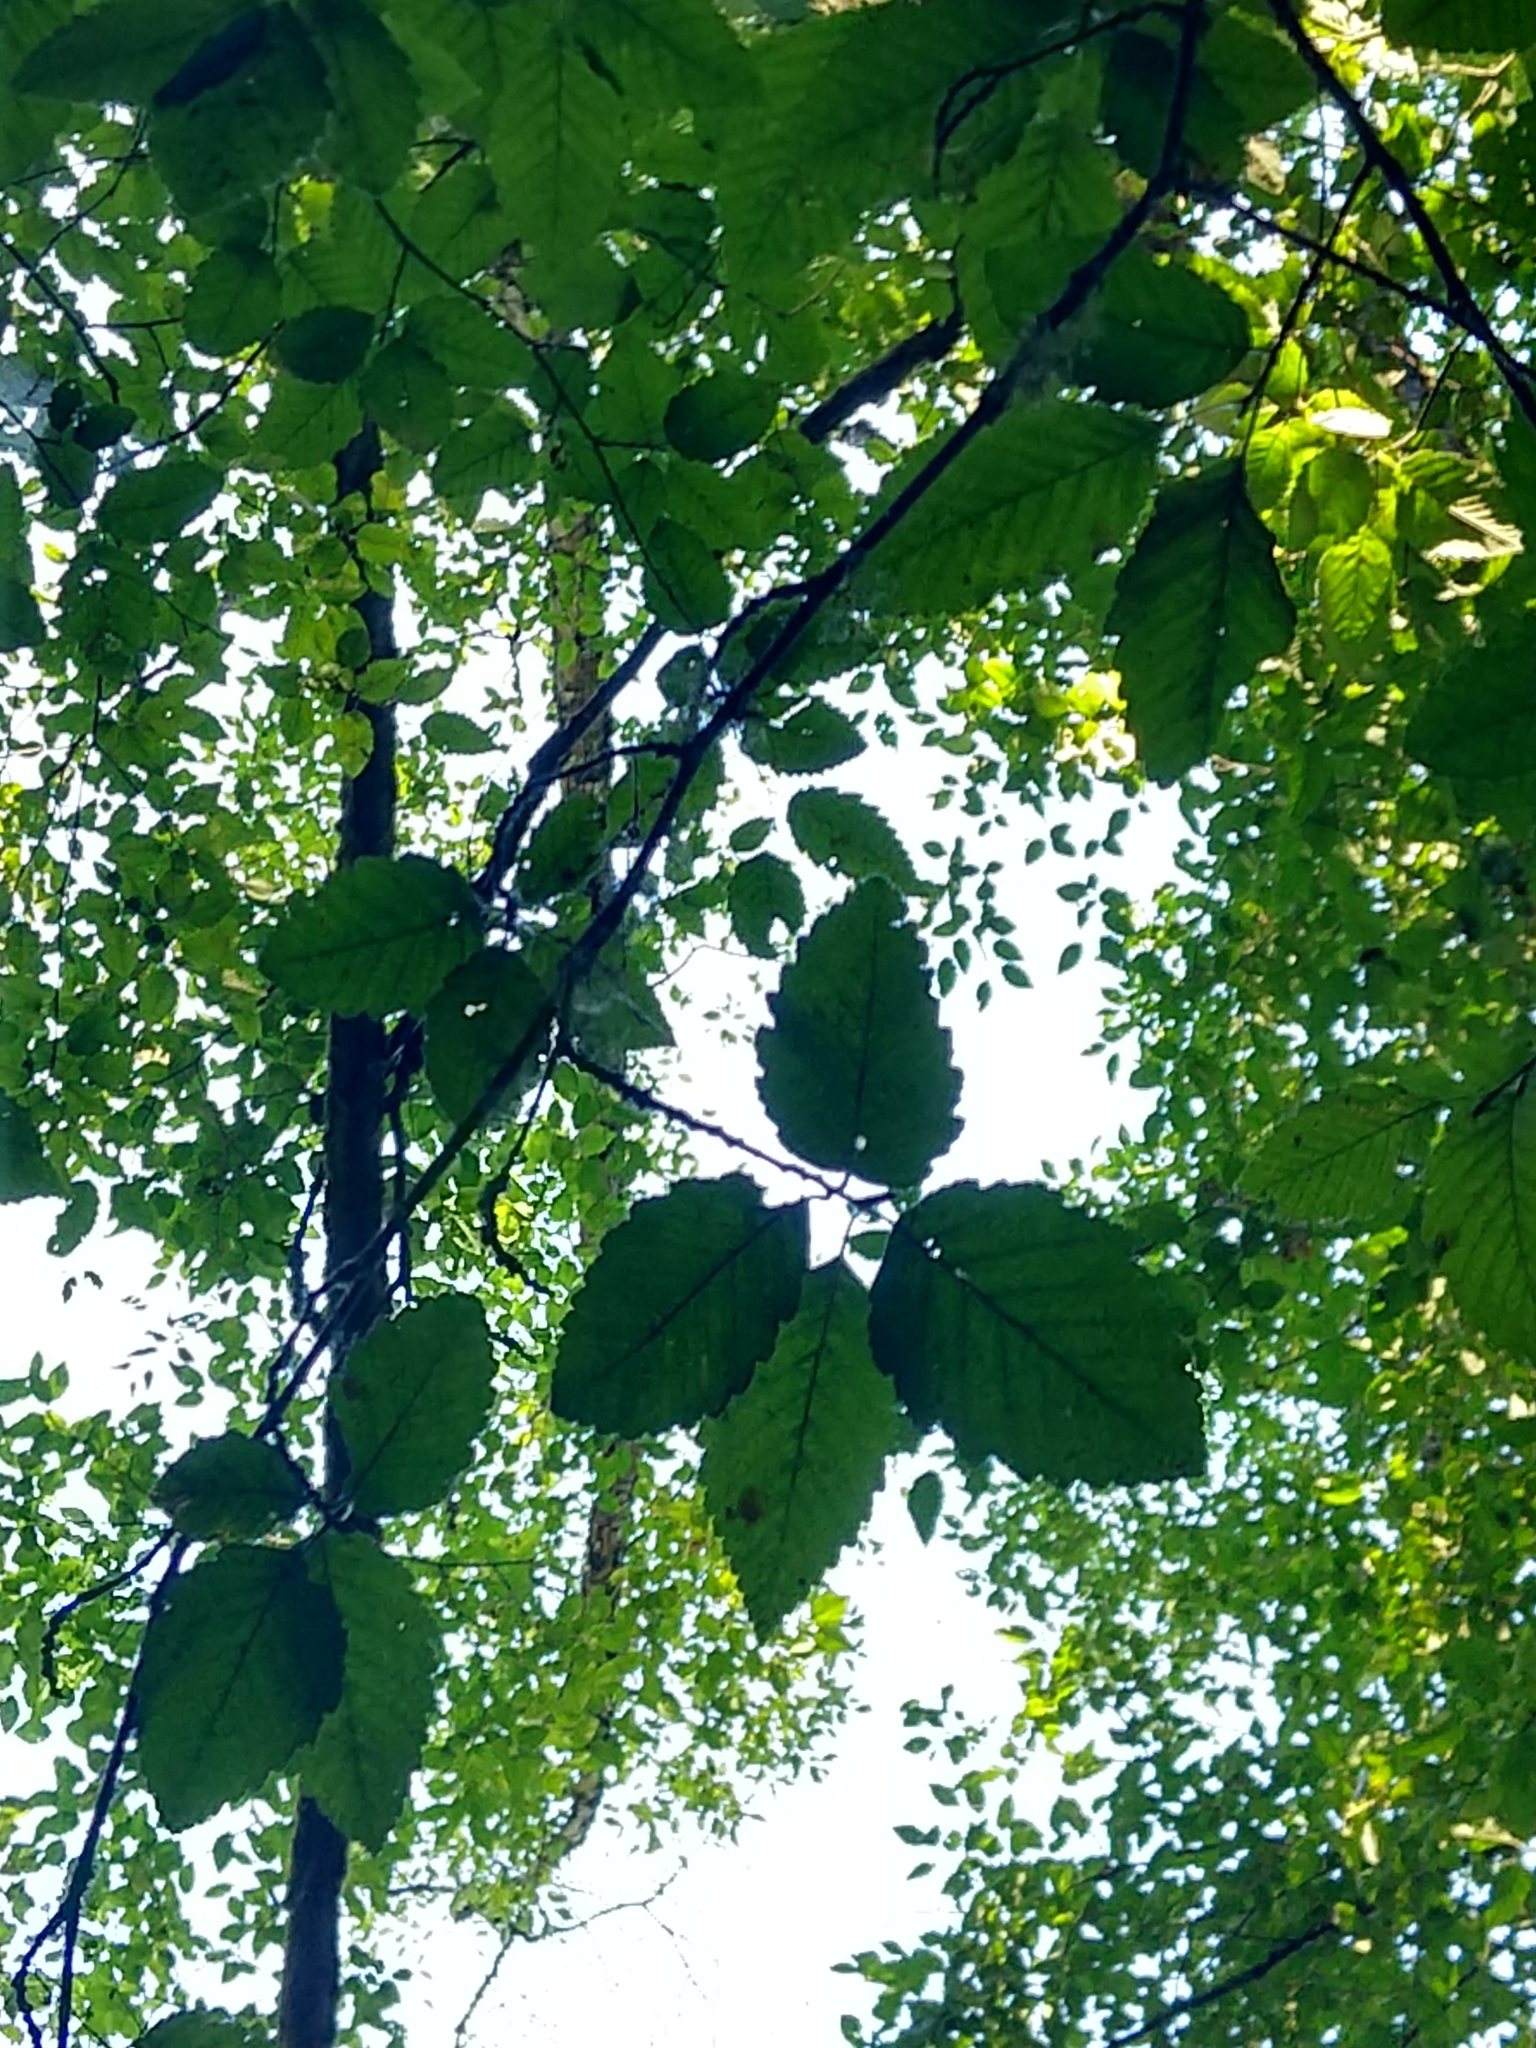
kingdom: Plantae
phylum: Tracheophyta
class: Magnoliopsida
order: Fagales
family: Betulaceae
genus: Alnus
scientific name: Alnus rubra
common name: Red alder
